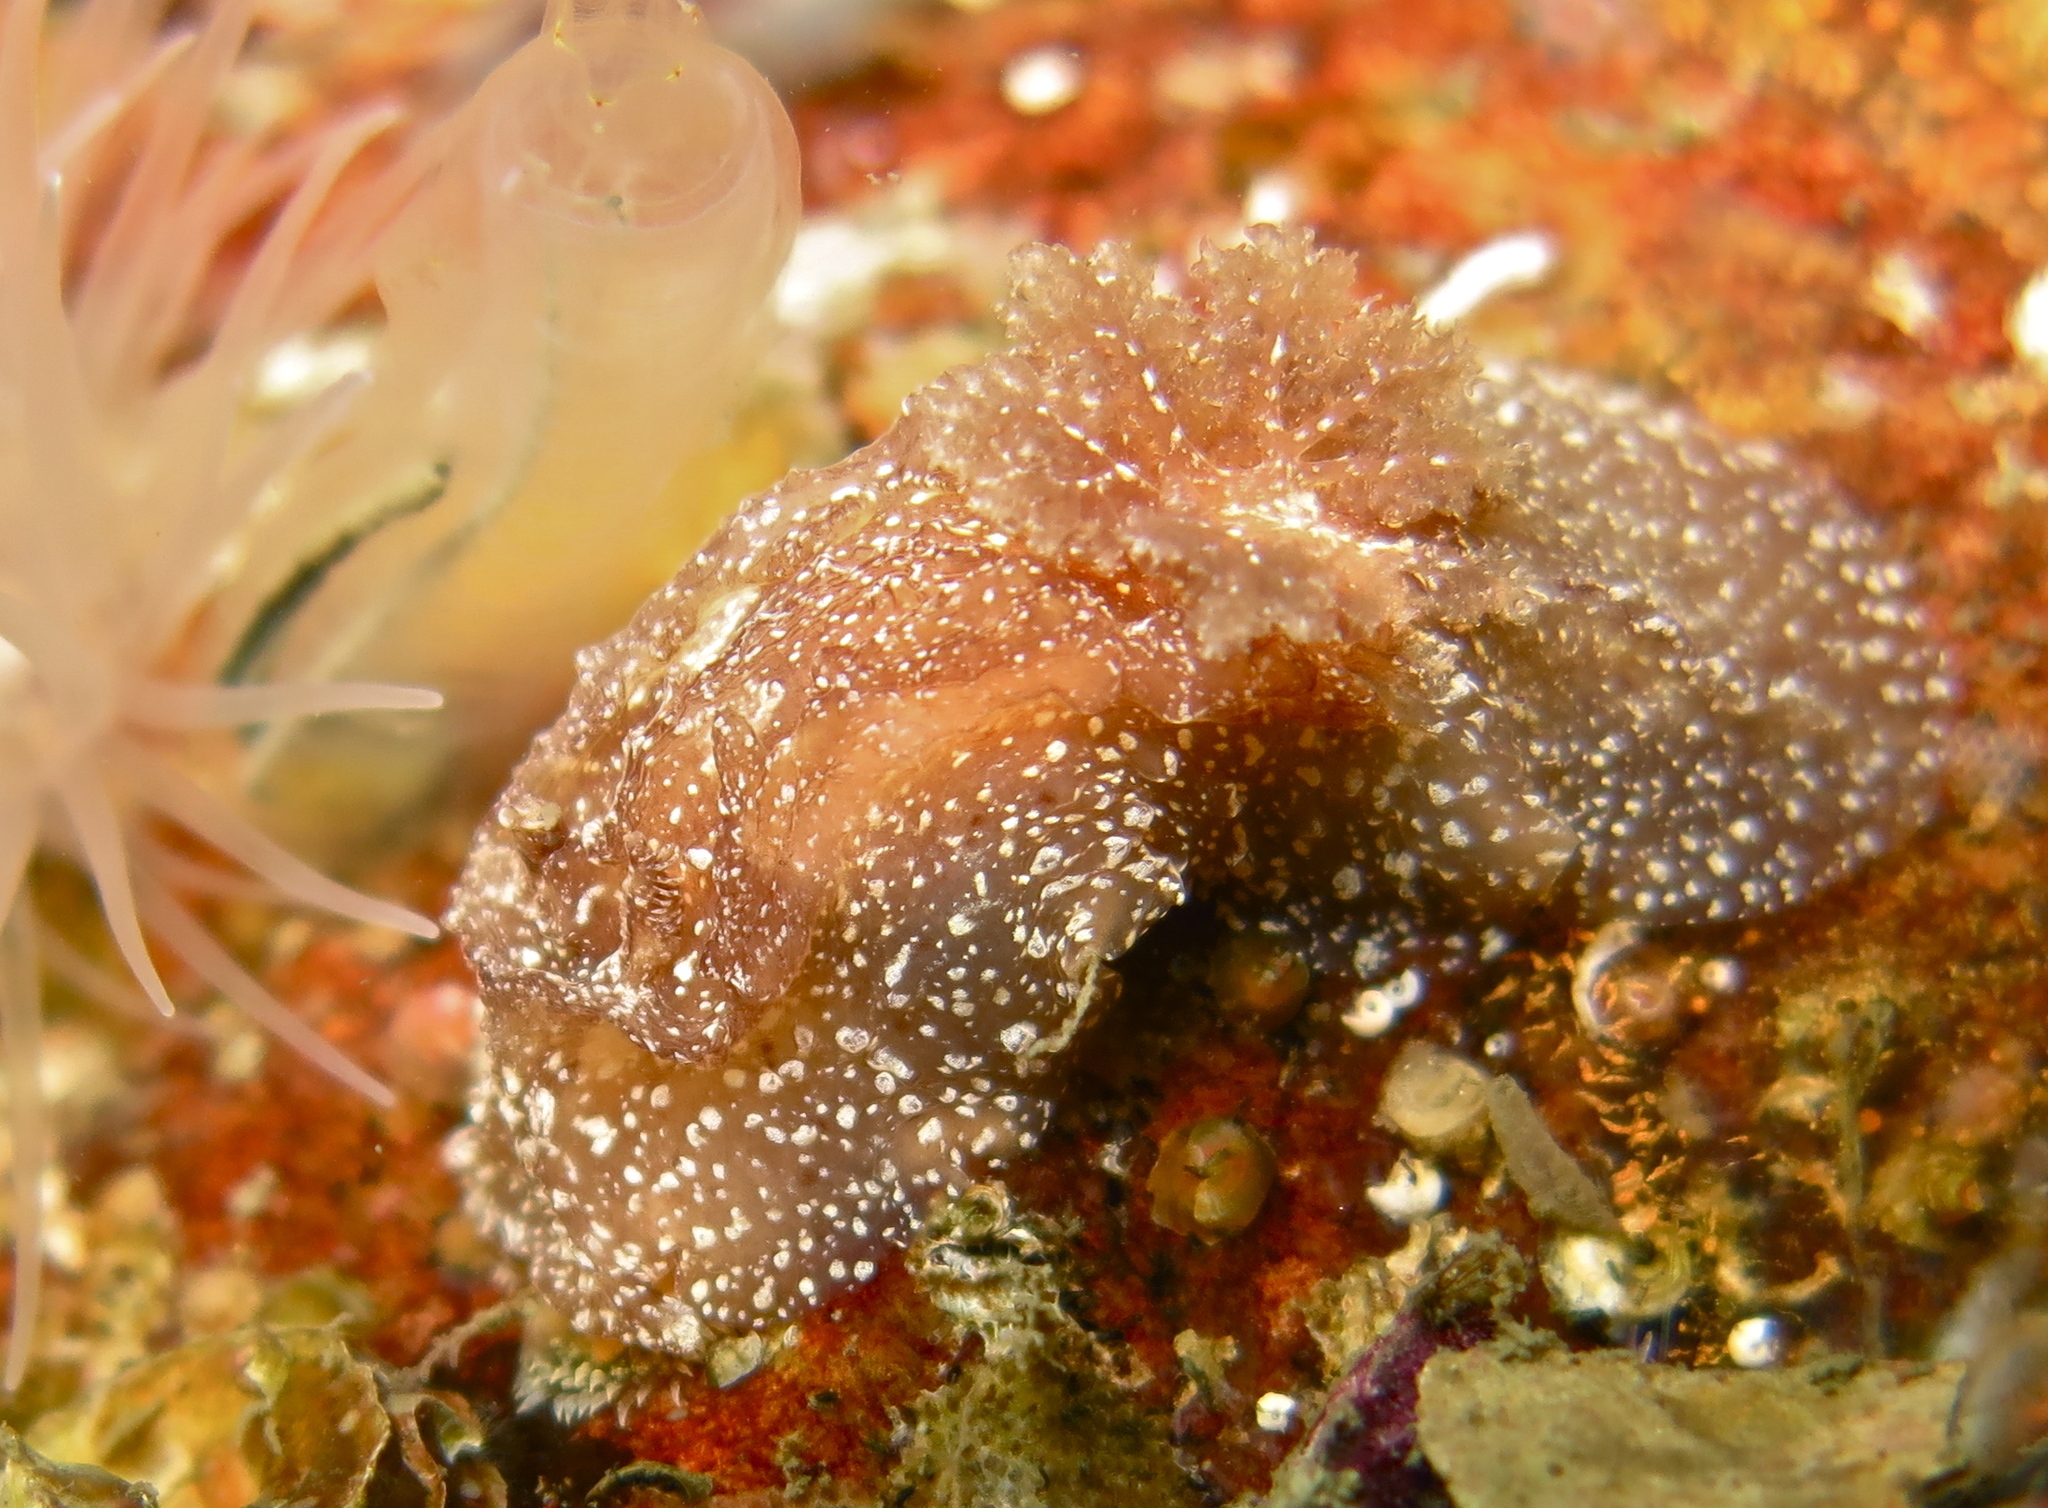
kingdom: Animalia
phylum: Mollusca
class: Gastropoda
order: Nudibranchia
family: Goniodorididae
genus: Pelagella
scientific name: Pelagella castanea
